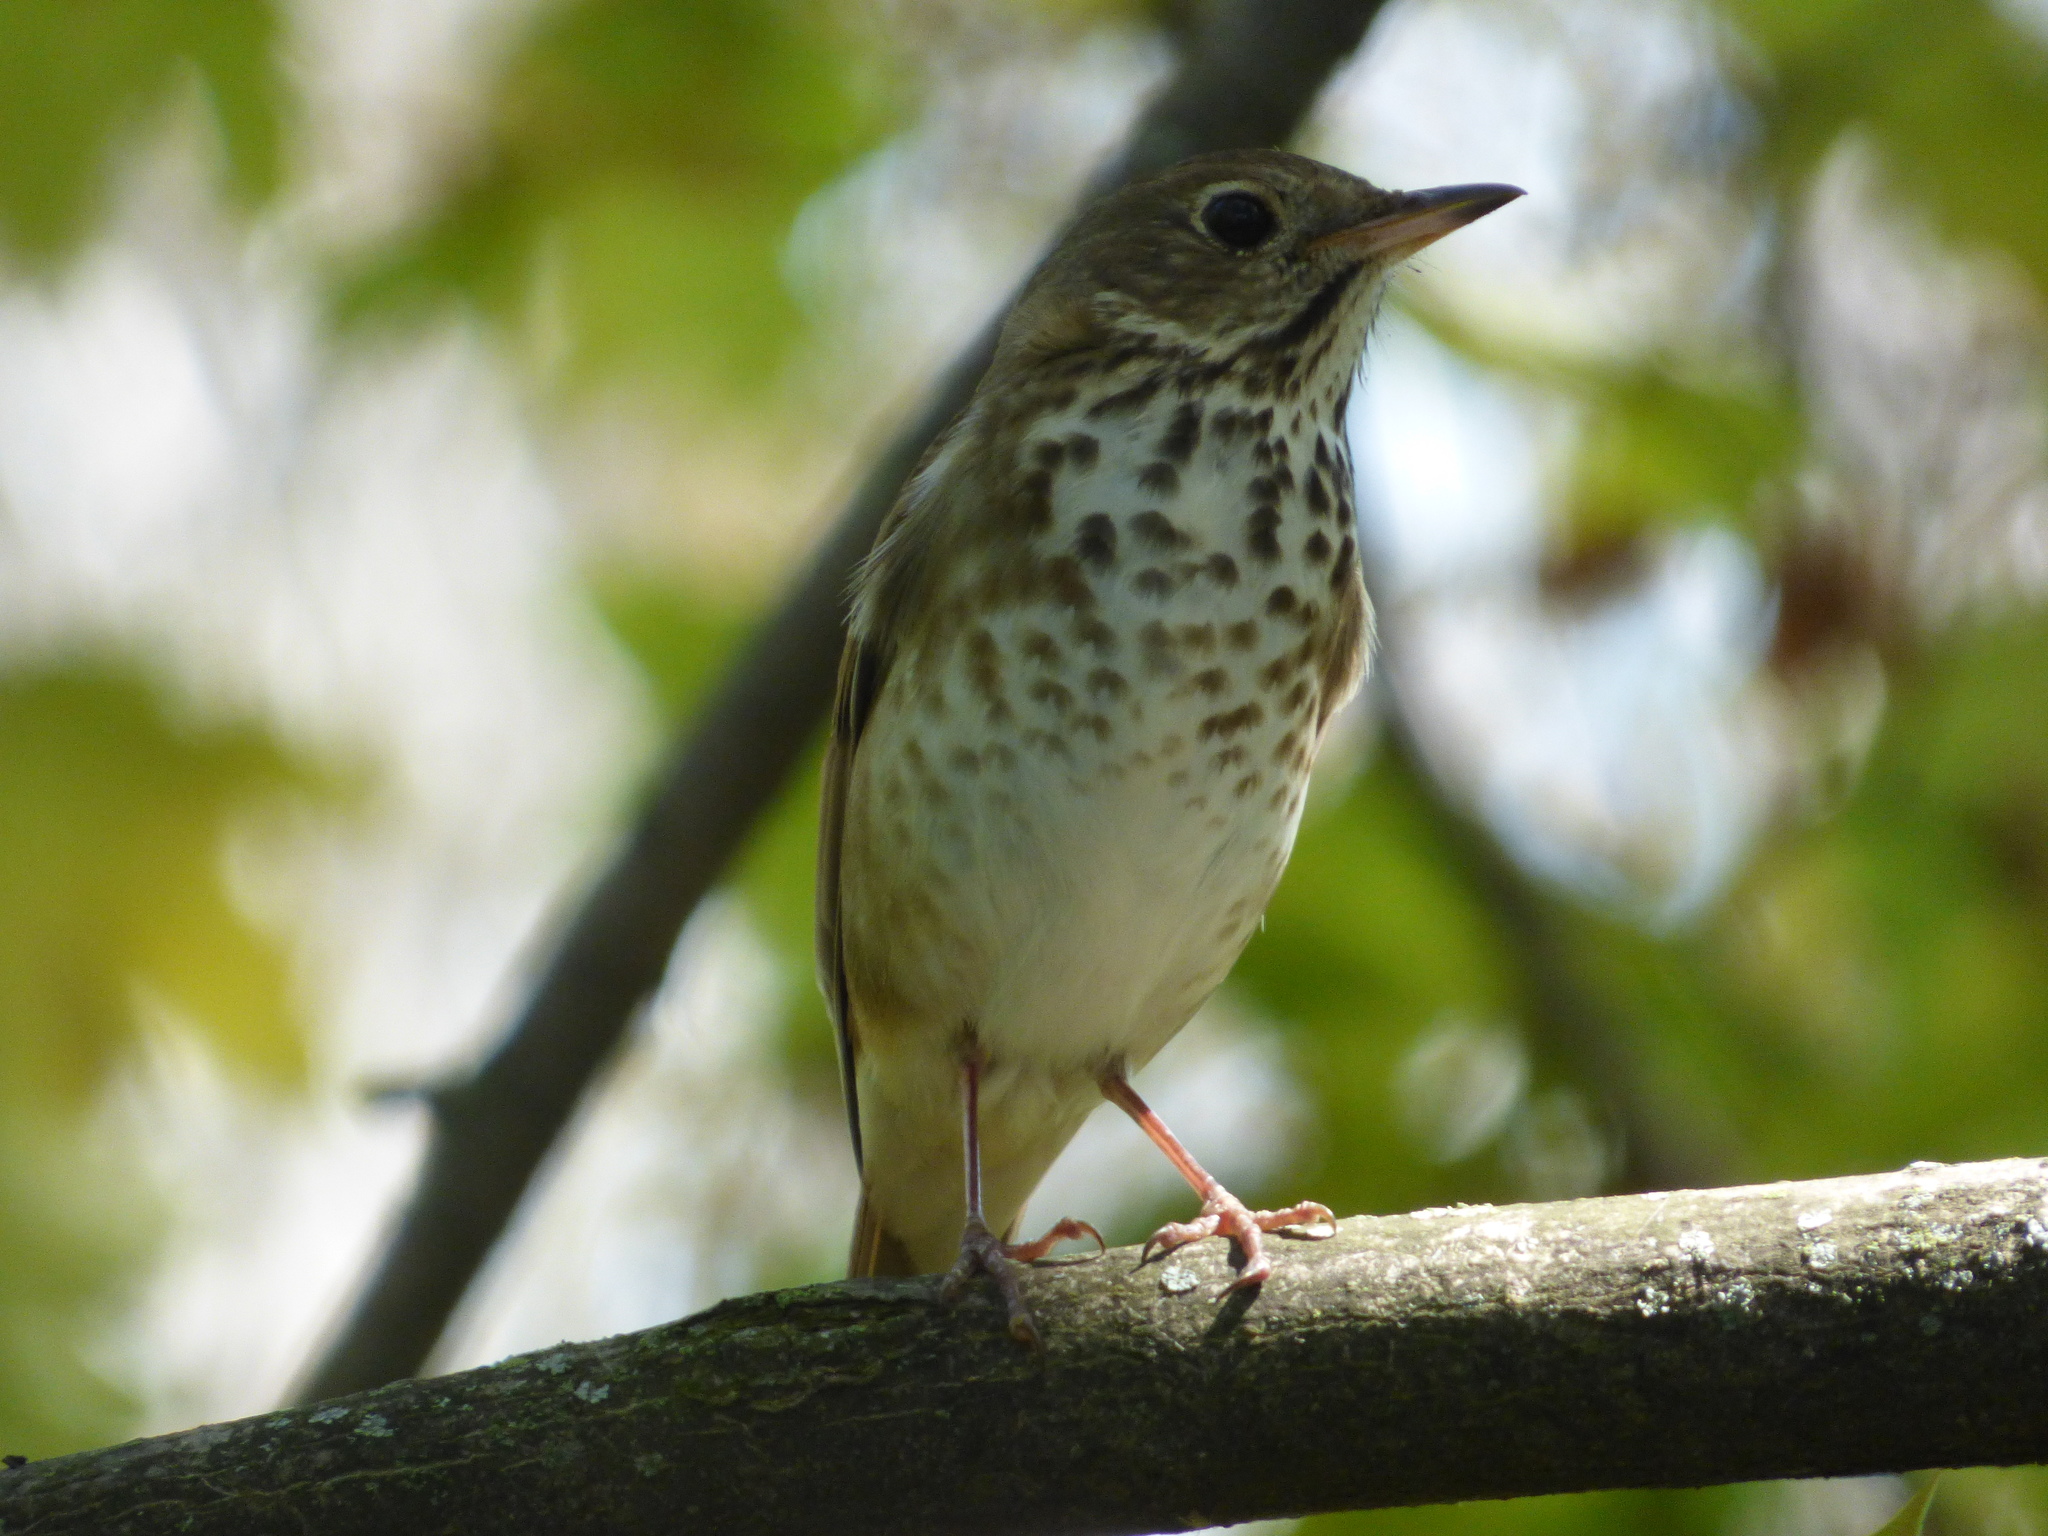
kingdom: Animalia
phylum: Chordata
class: Aves
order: Passeriformes
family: Turdidae
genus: Catharus
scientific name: Catharus guttatus
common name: Hermit thrush
